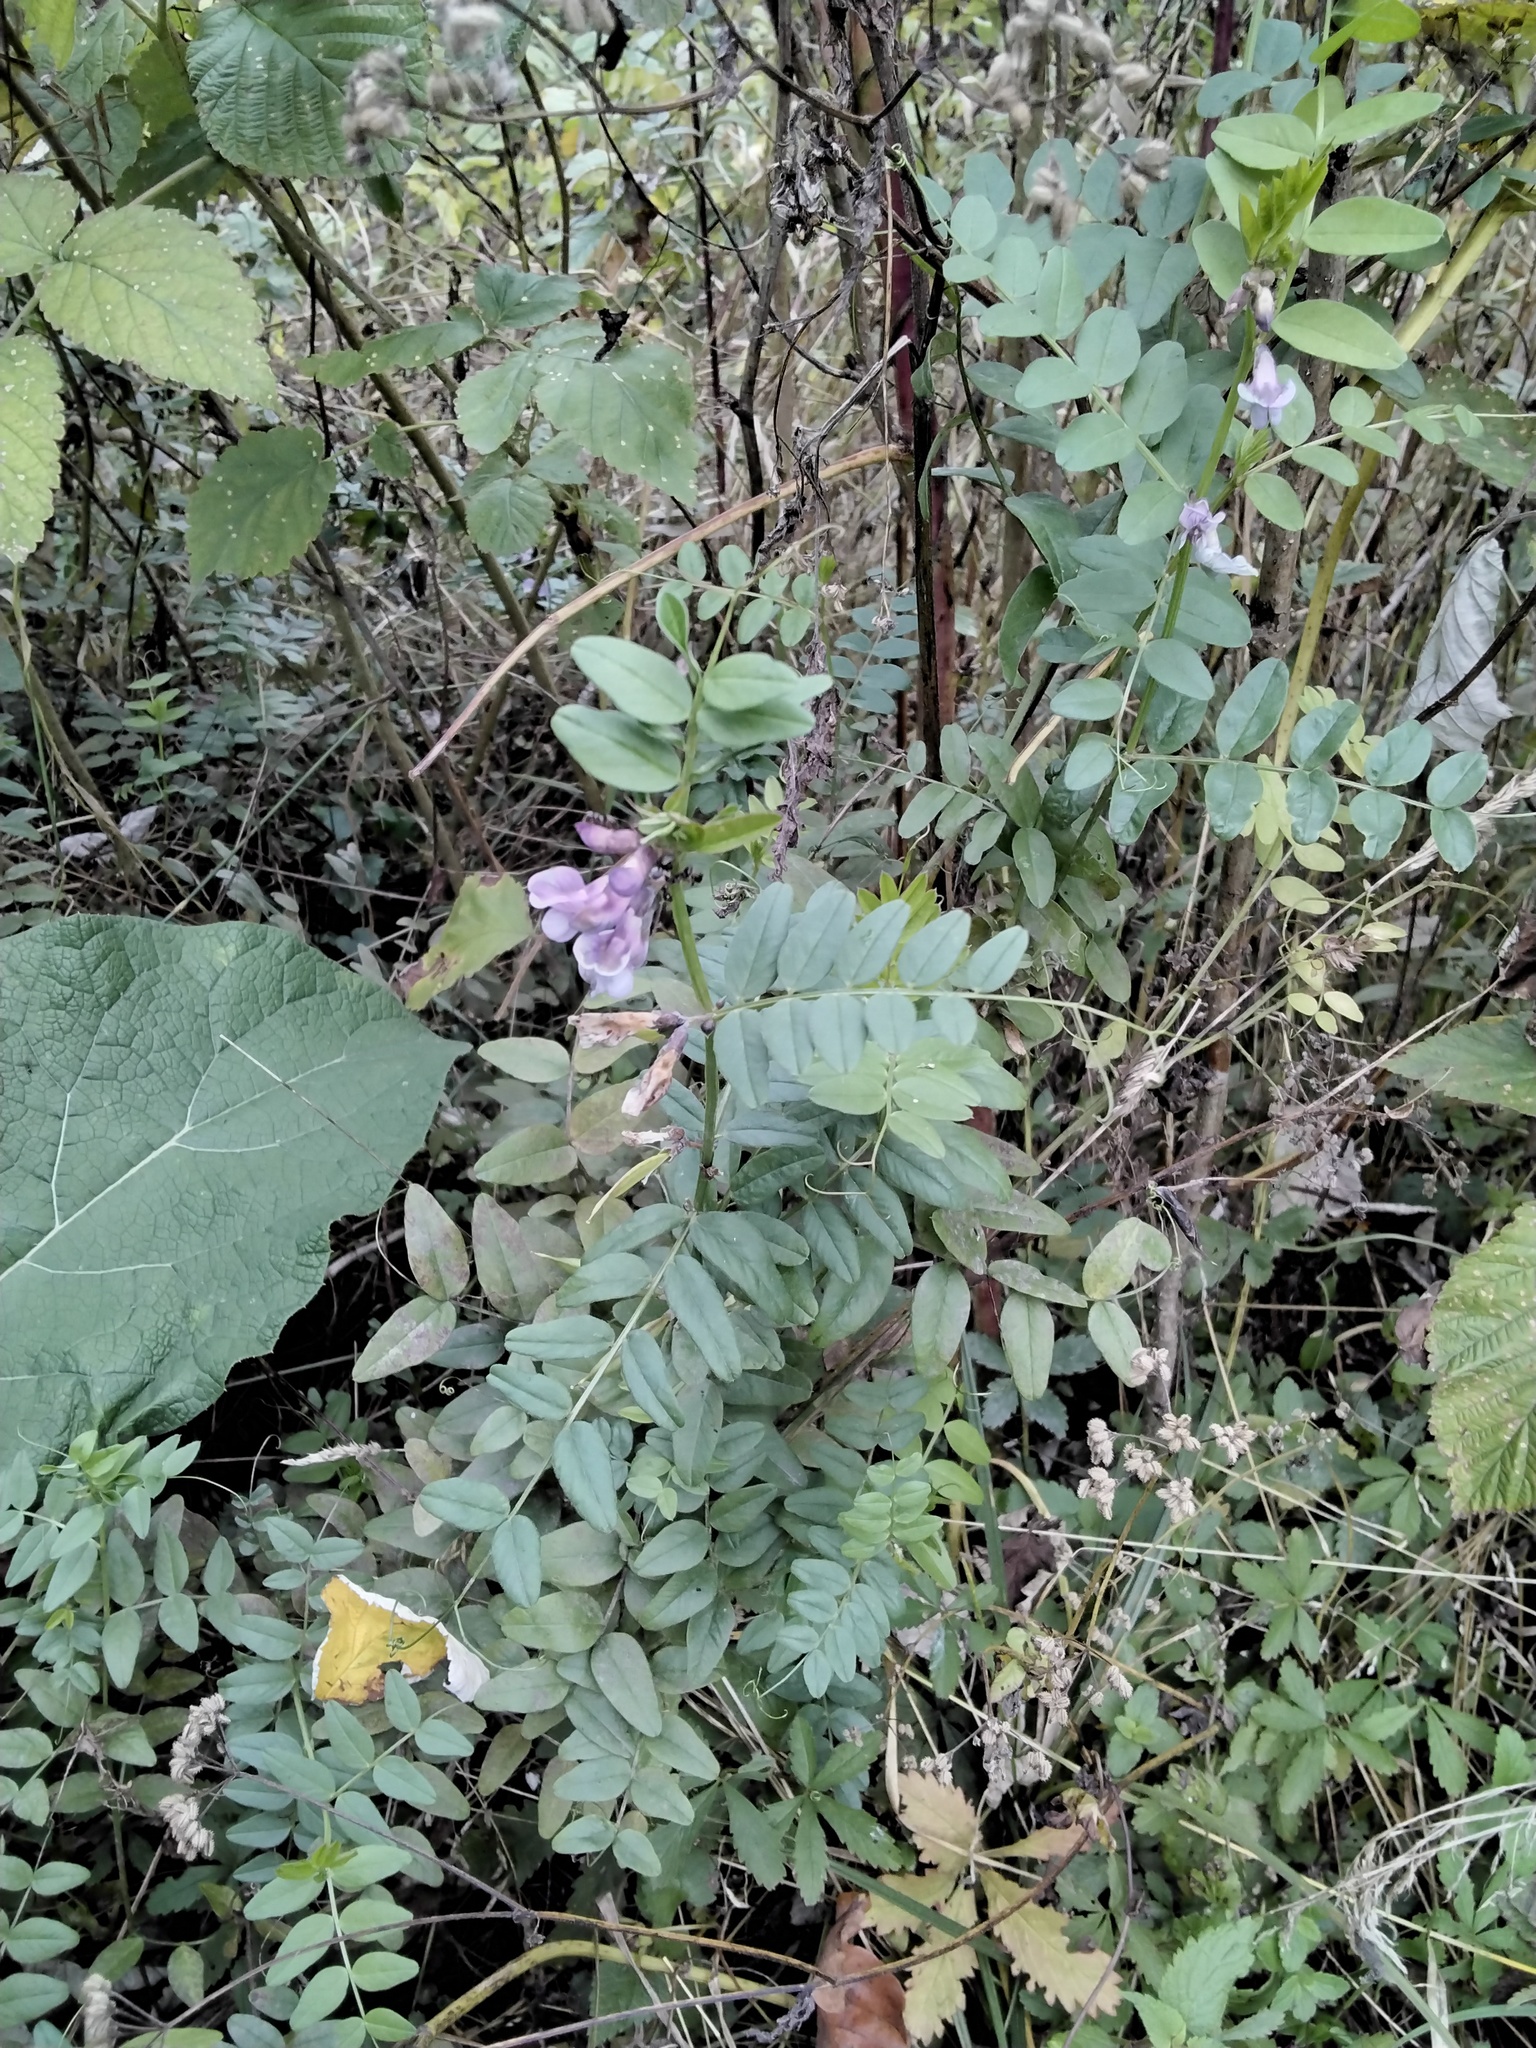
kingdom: Plantae
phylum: Tracheophyta
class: Magnoliopsida
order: Fabales
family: Fabaceae
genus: Vicia
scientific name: Vicia sepium
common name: Bush vetch
